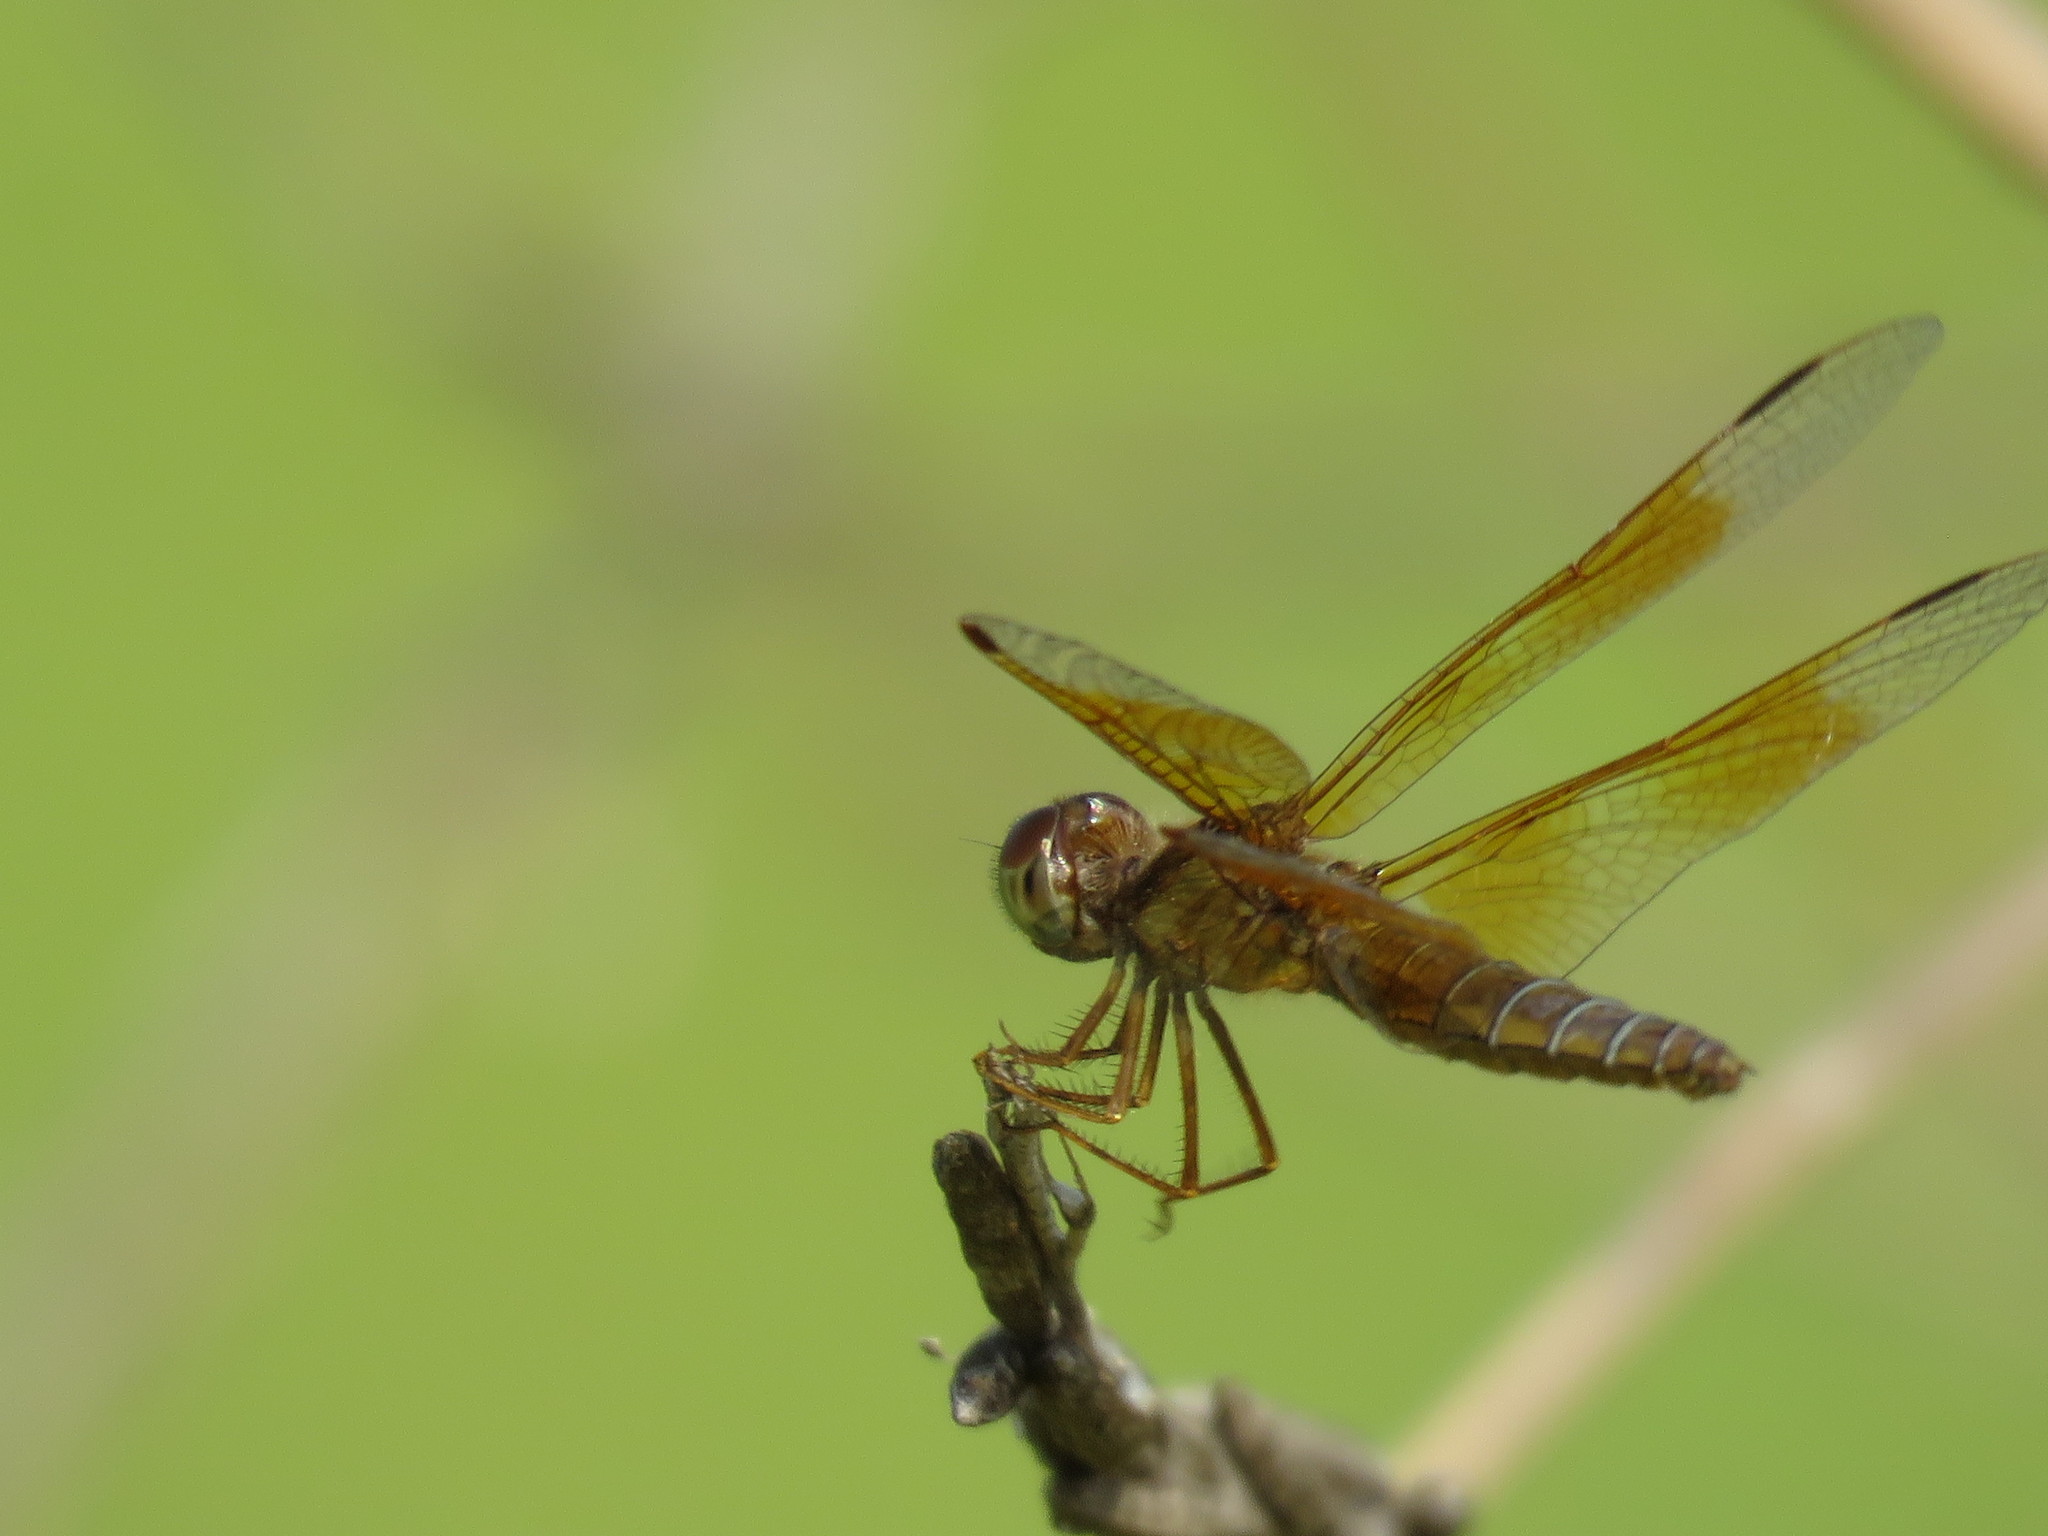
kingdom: Animalia
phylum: Arthropoda
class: Insecta
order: Odonata
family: Libellulidae
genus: Perithemis
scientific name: Perithemis tenera
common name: Eastern amberwing
